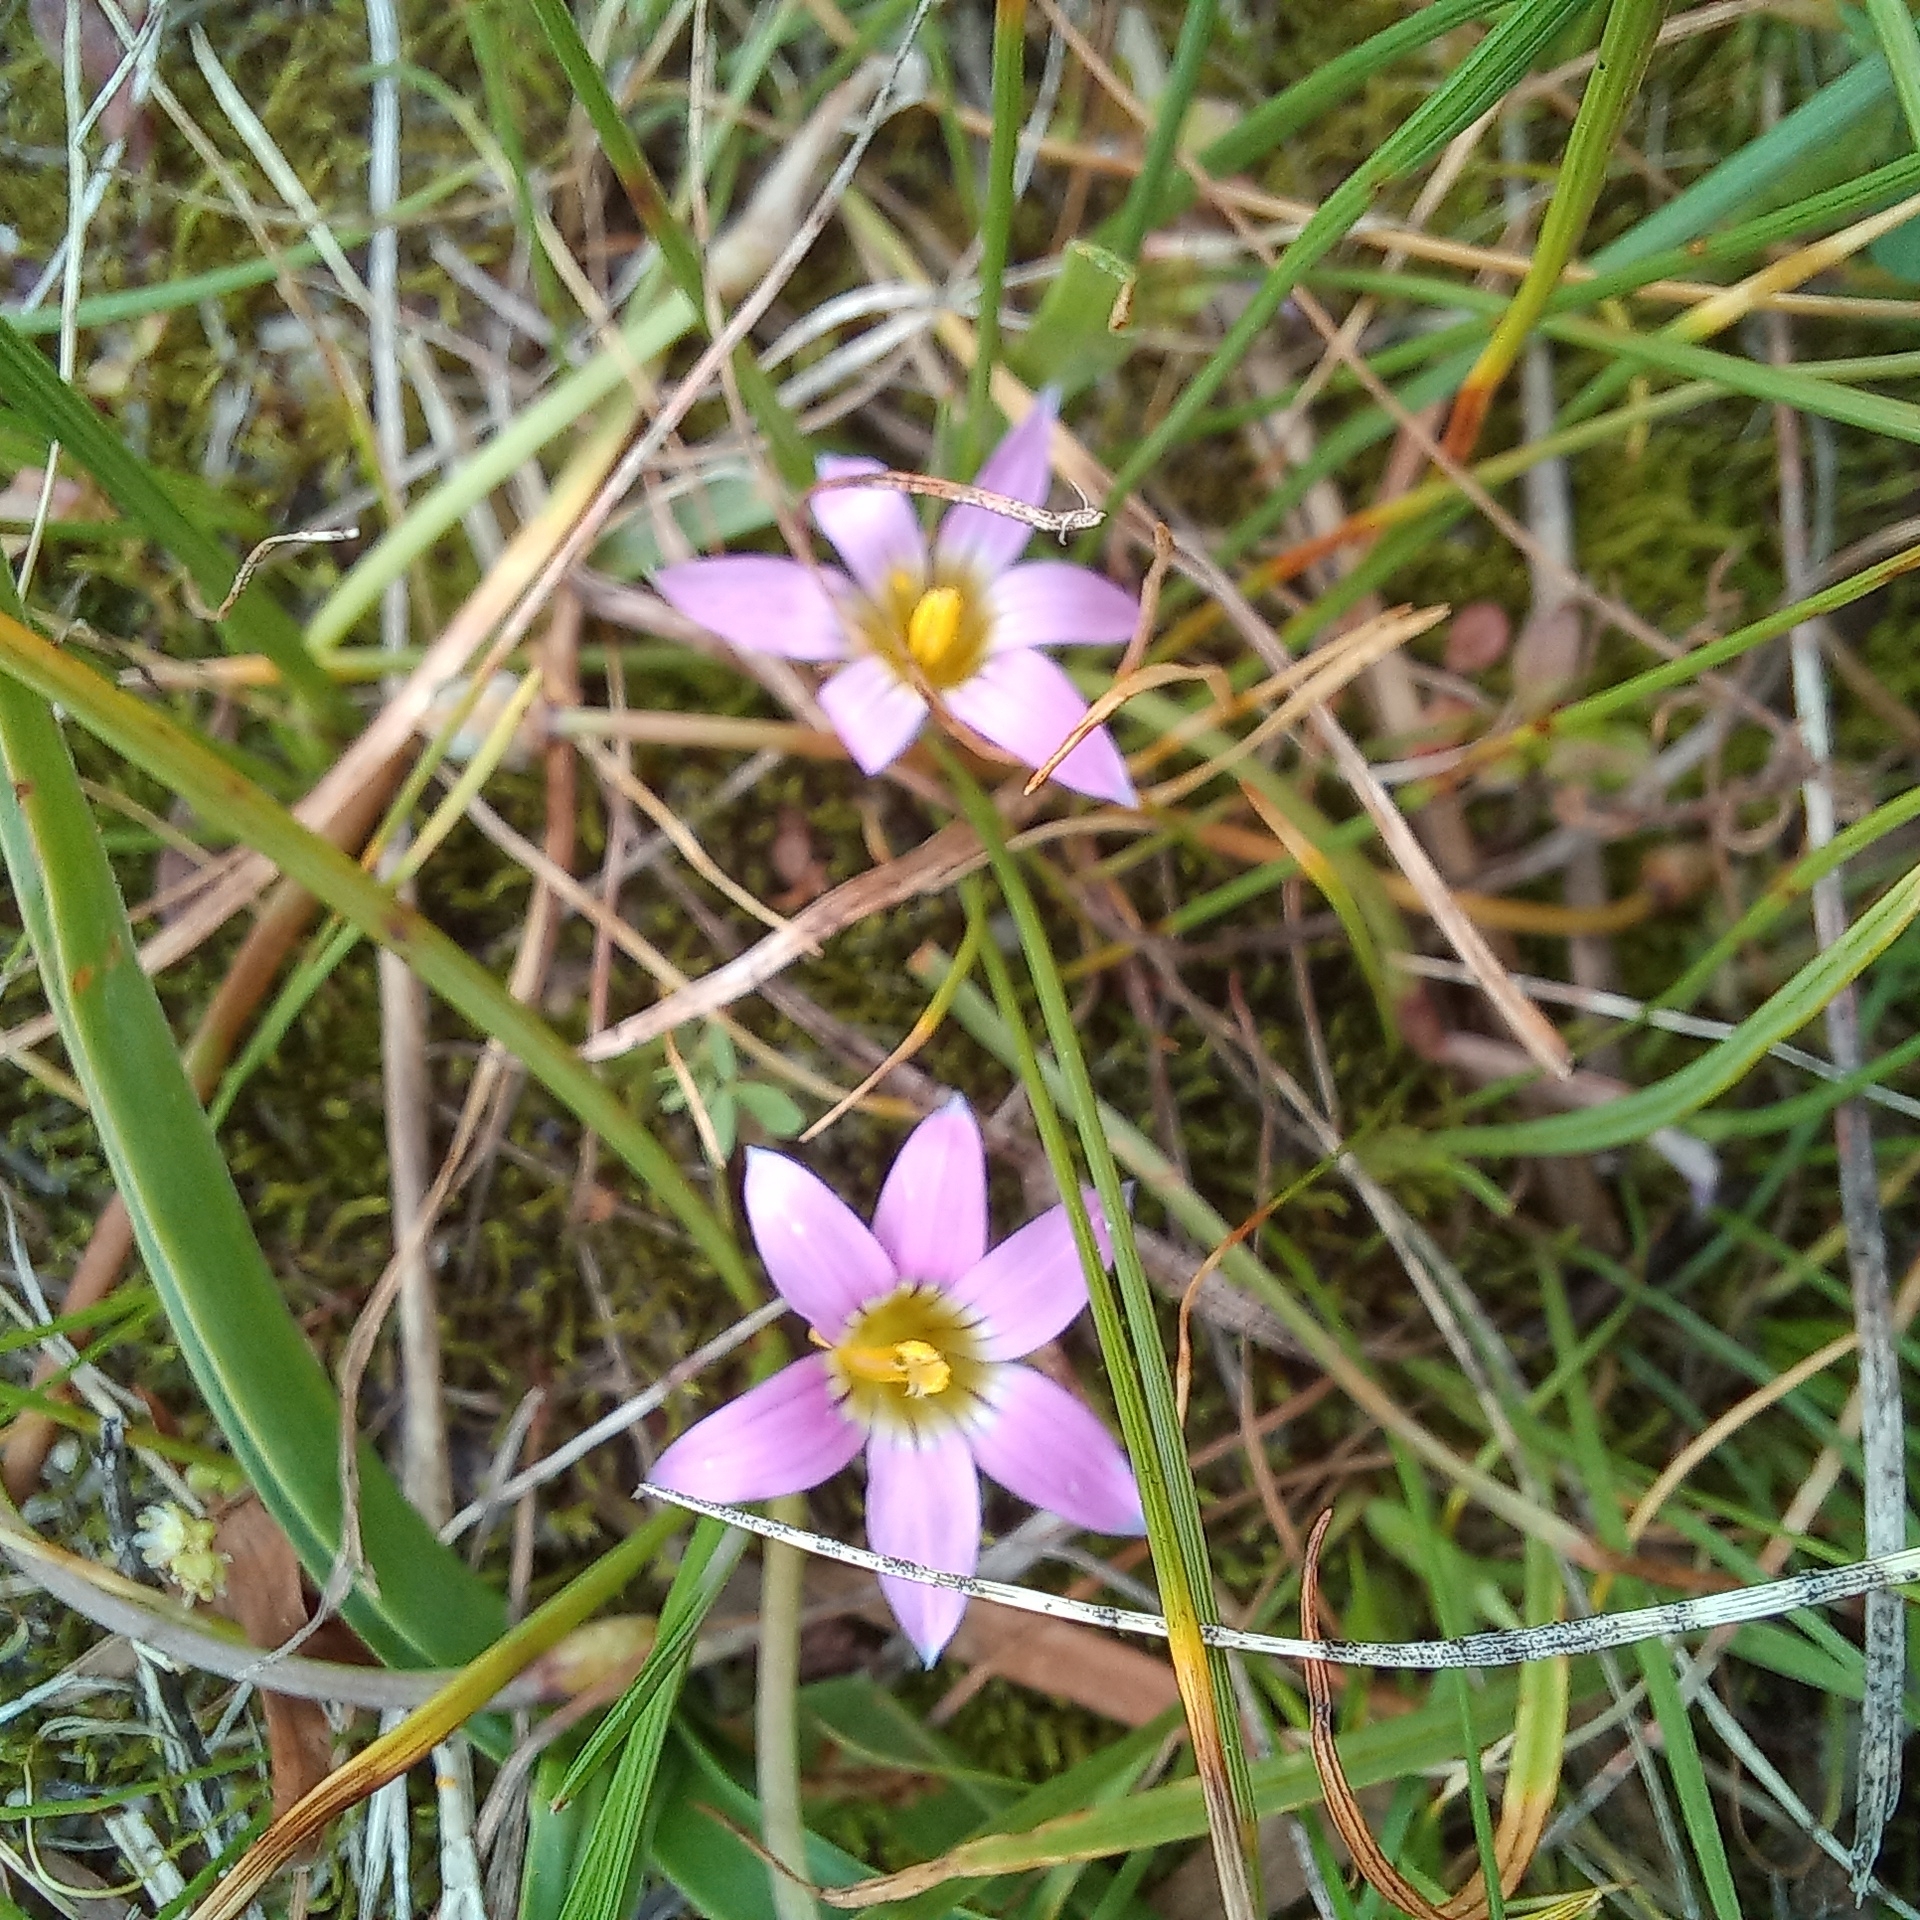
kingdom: Plantae
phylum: Tracheophyta
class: Liliopsida
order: Asparagales
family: Iridaceae
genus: Romulea
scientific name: Romulea rosea
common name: Oniongrass
